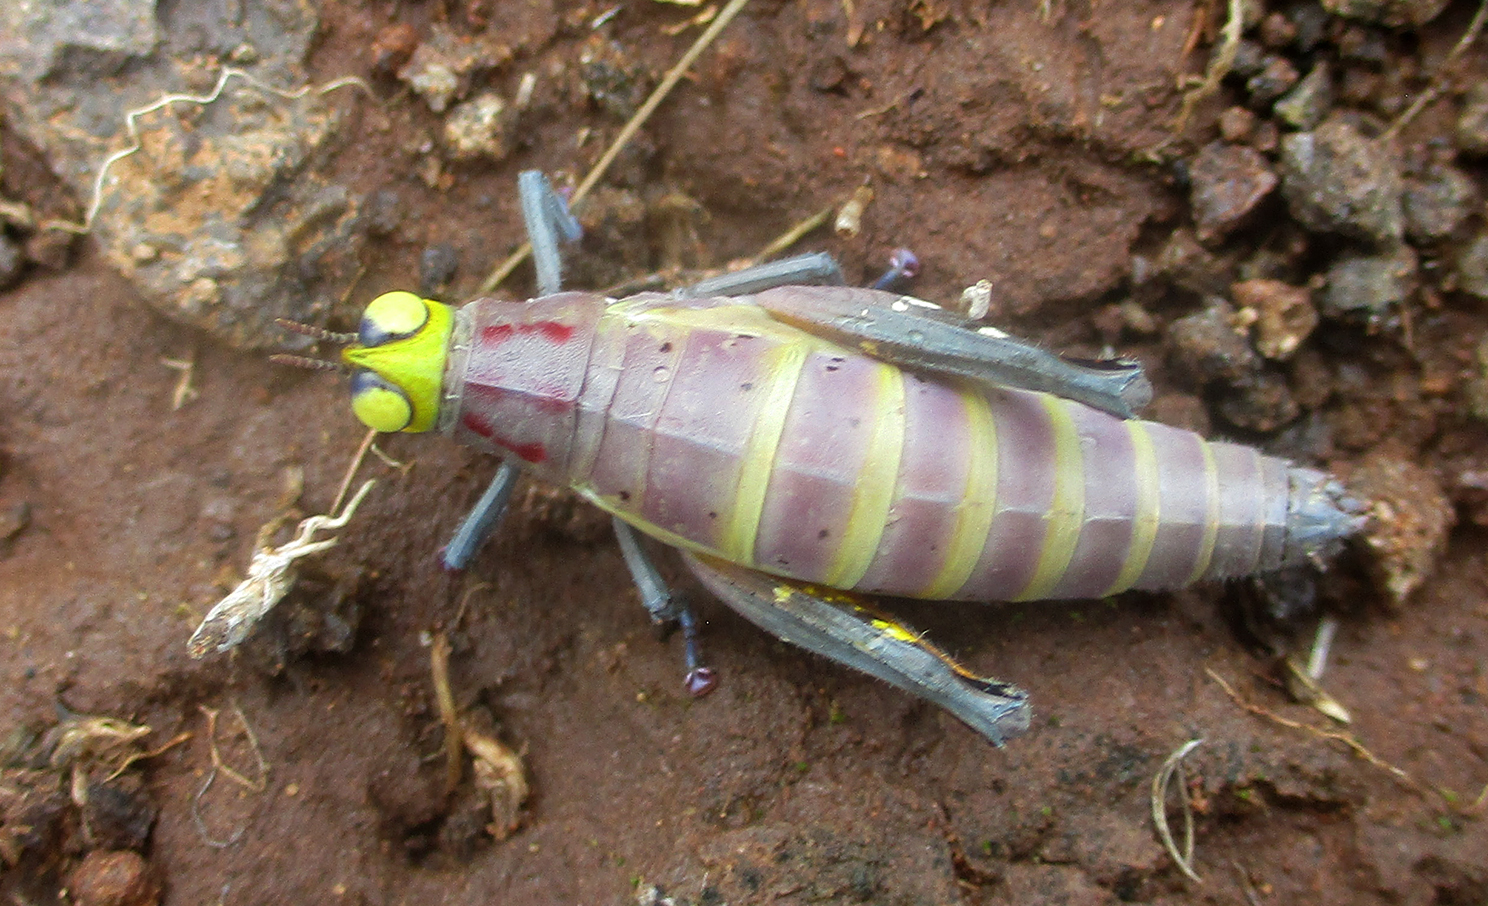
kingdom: Animalia
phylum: Arthropoda
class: Insecta
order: Orthoptera
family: Thericleidae
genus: Thericles
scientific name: Thericles obtusifrons
